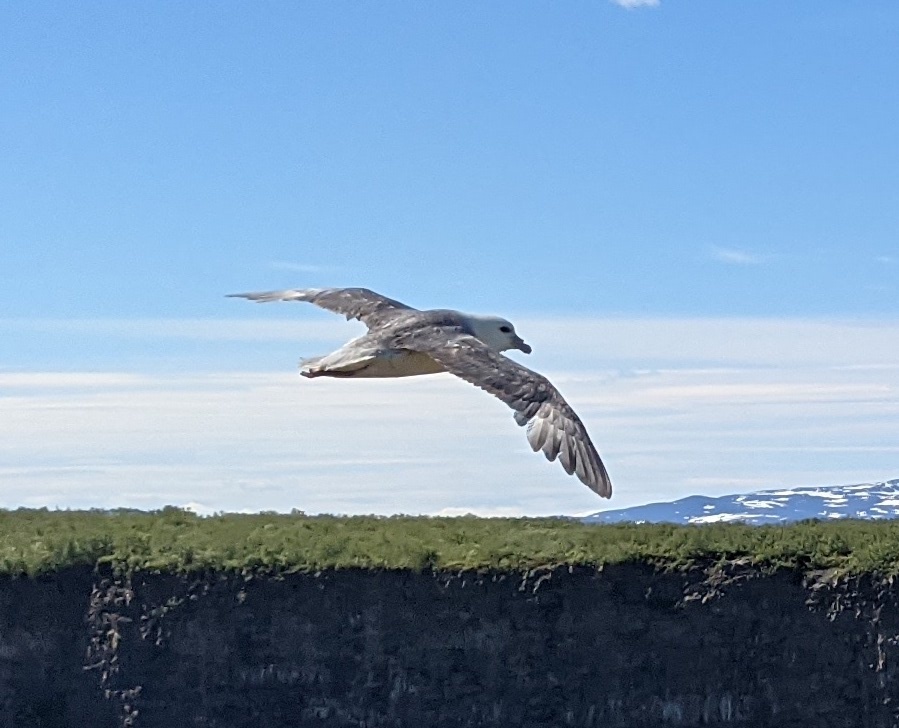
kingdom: Animalia
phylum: Chordata
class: Aves
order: Procellariiformes
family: Procellariidae
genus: Fulmarus
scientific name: Fulmarus glacialis
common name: Northern fulmar
